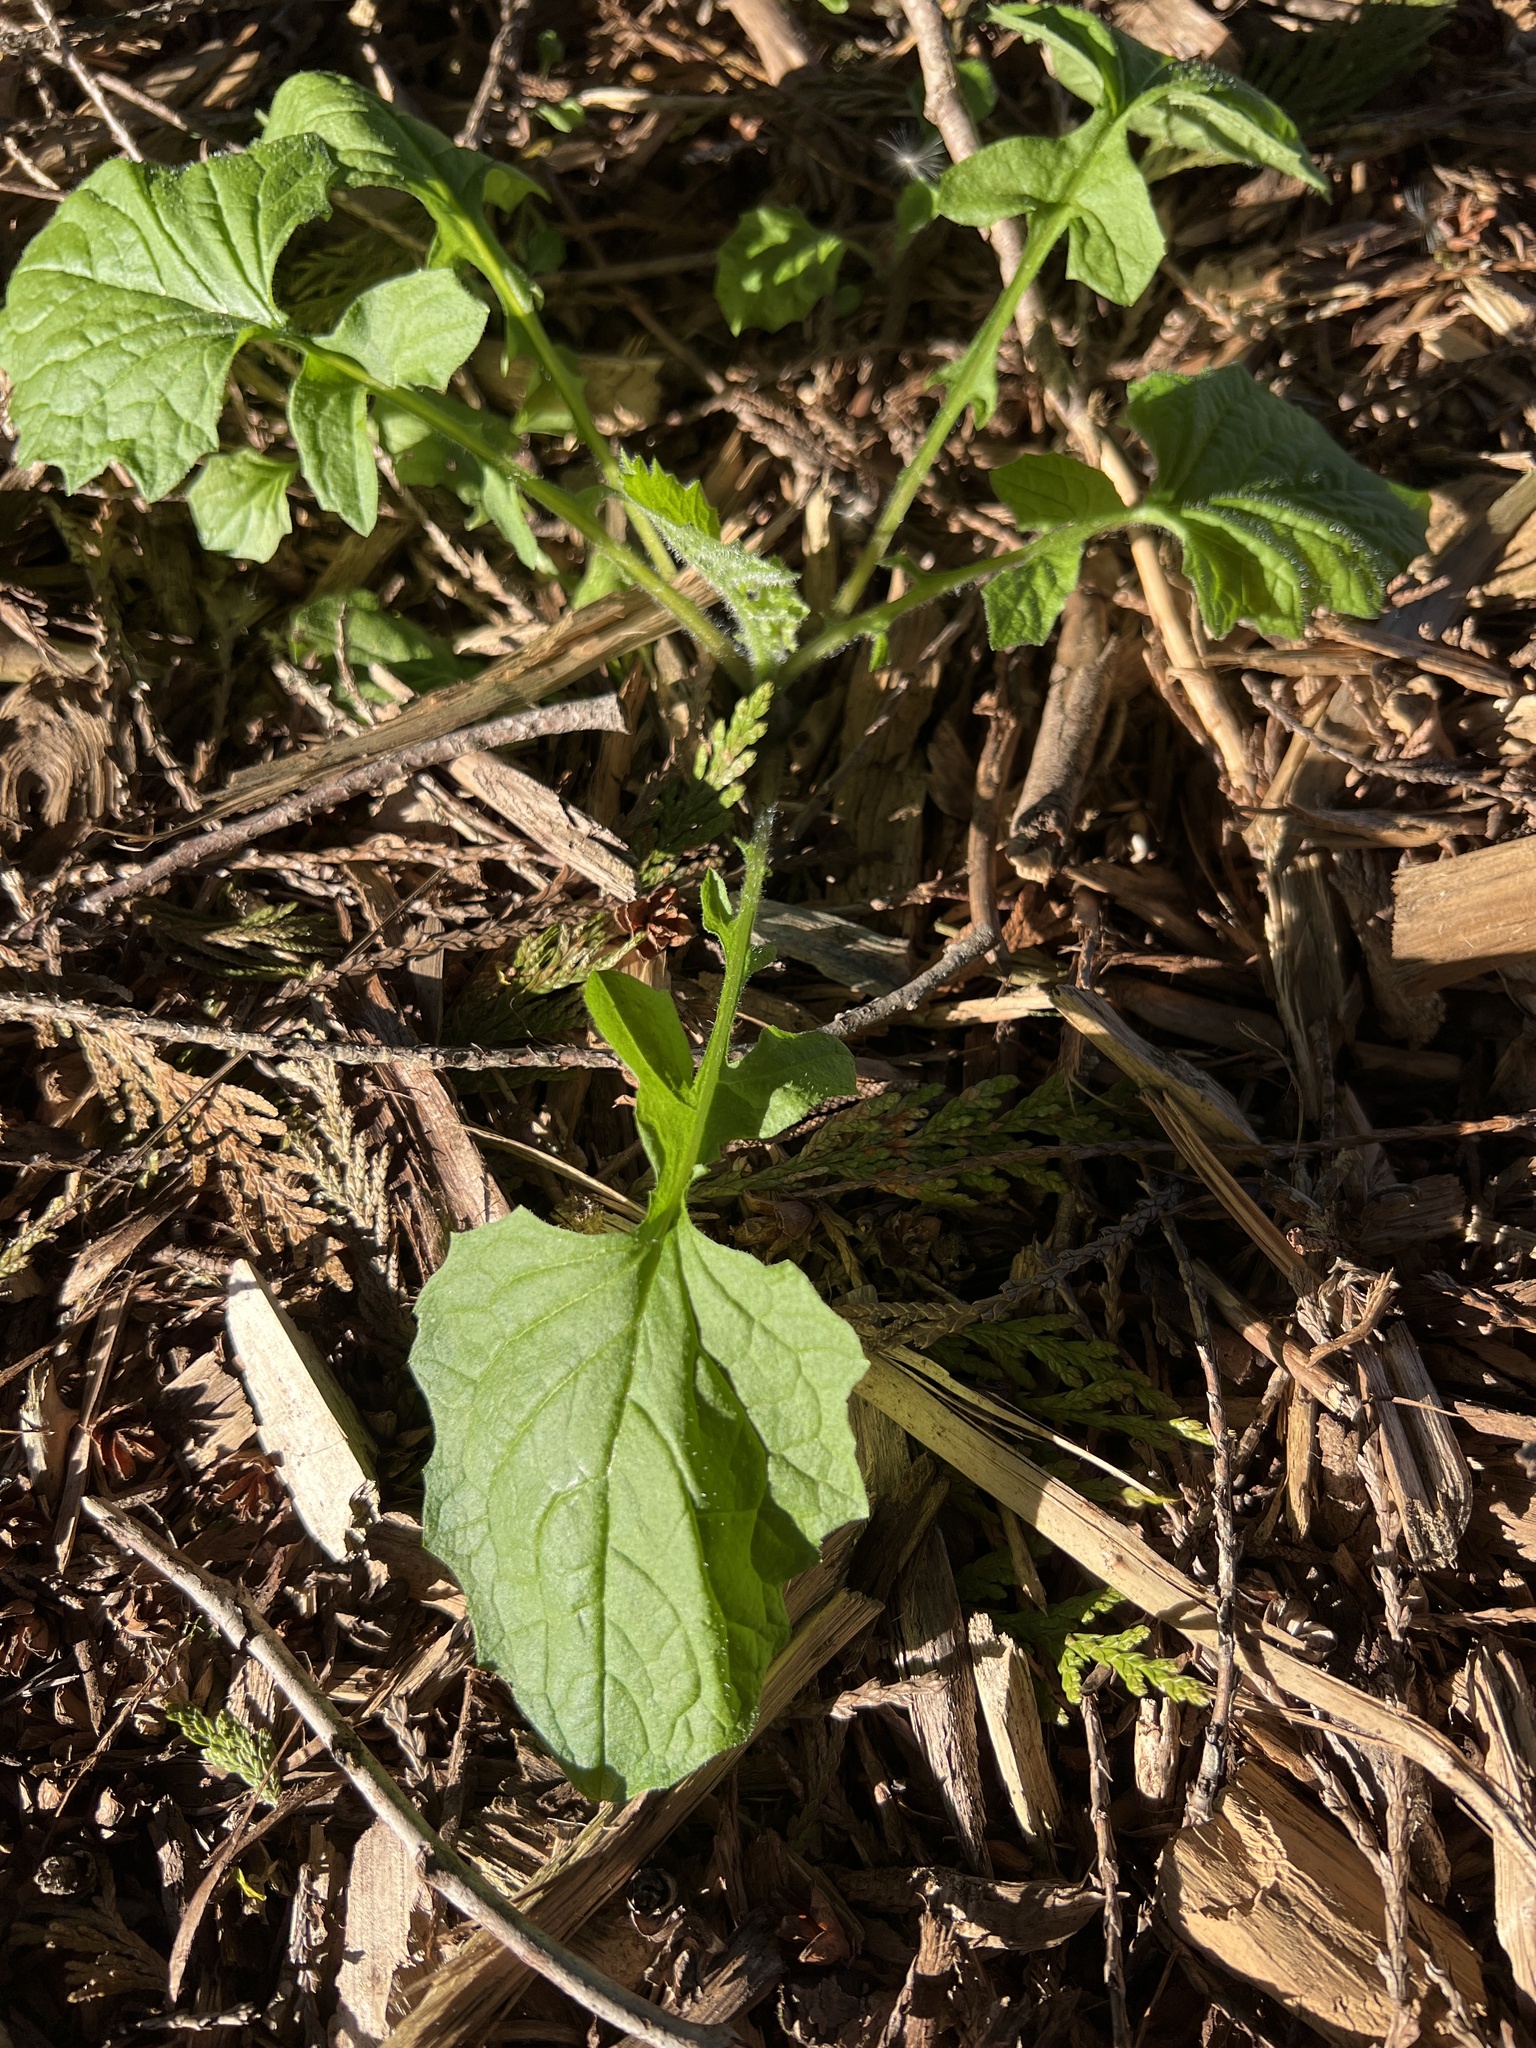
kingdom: Plantae
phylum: Tracheophyta
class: Magnoliopsida
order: Asterales
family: Asteraceae
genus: Lapsana
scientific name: Lapsana communis
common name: Nipplewort
